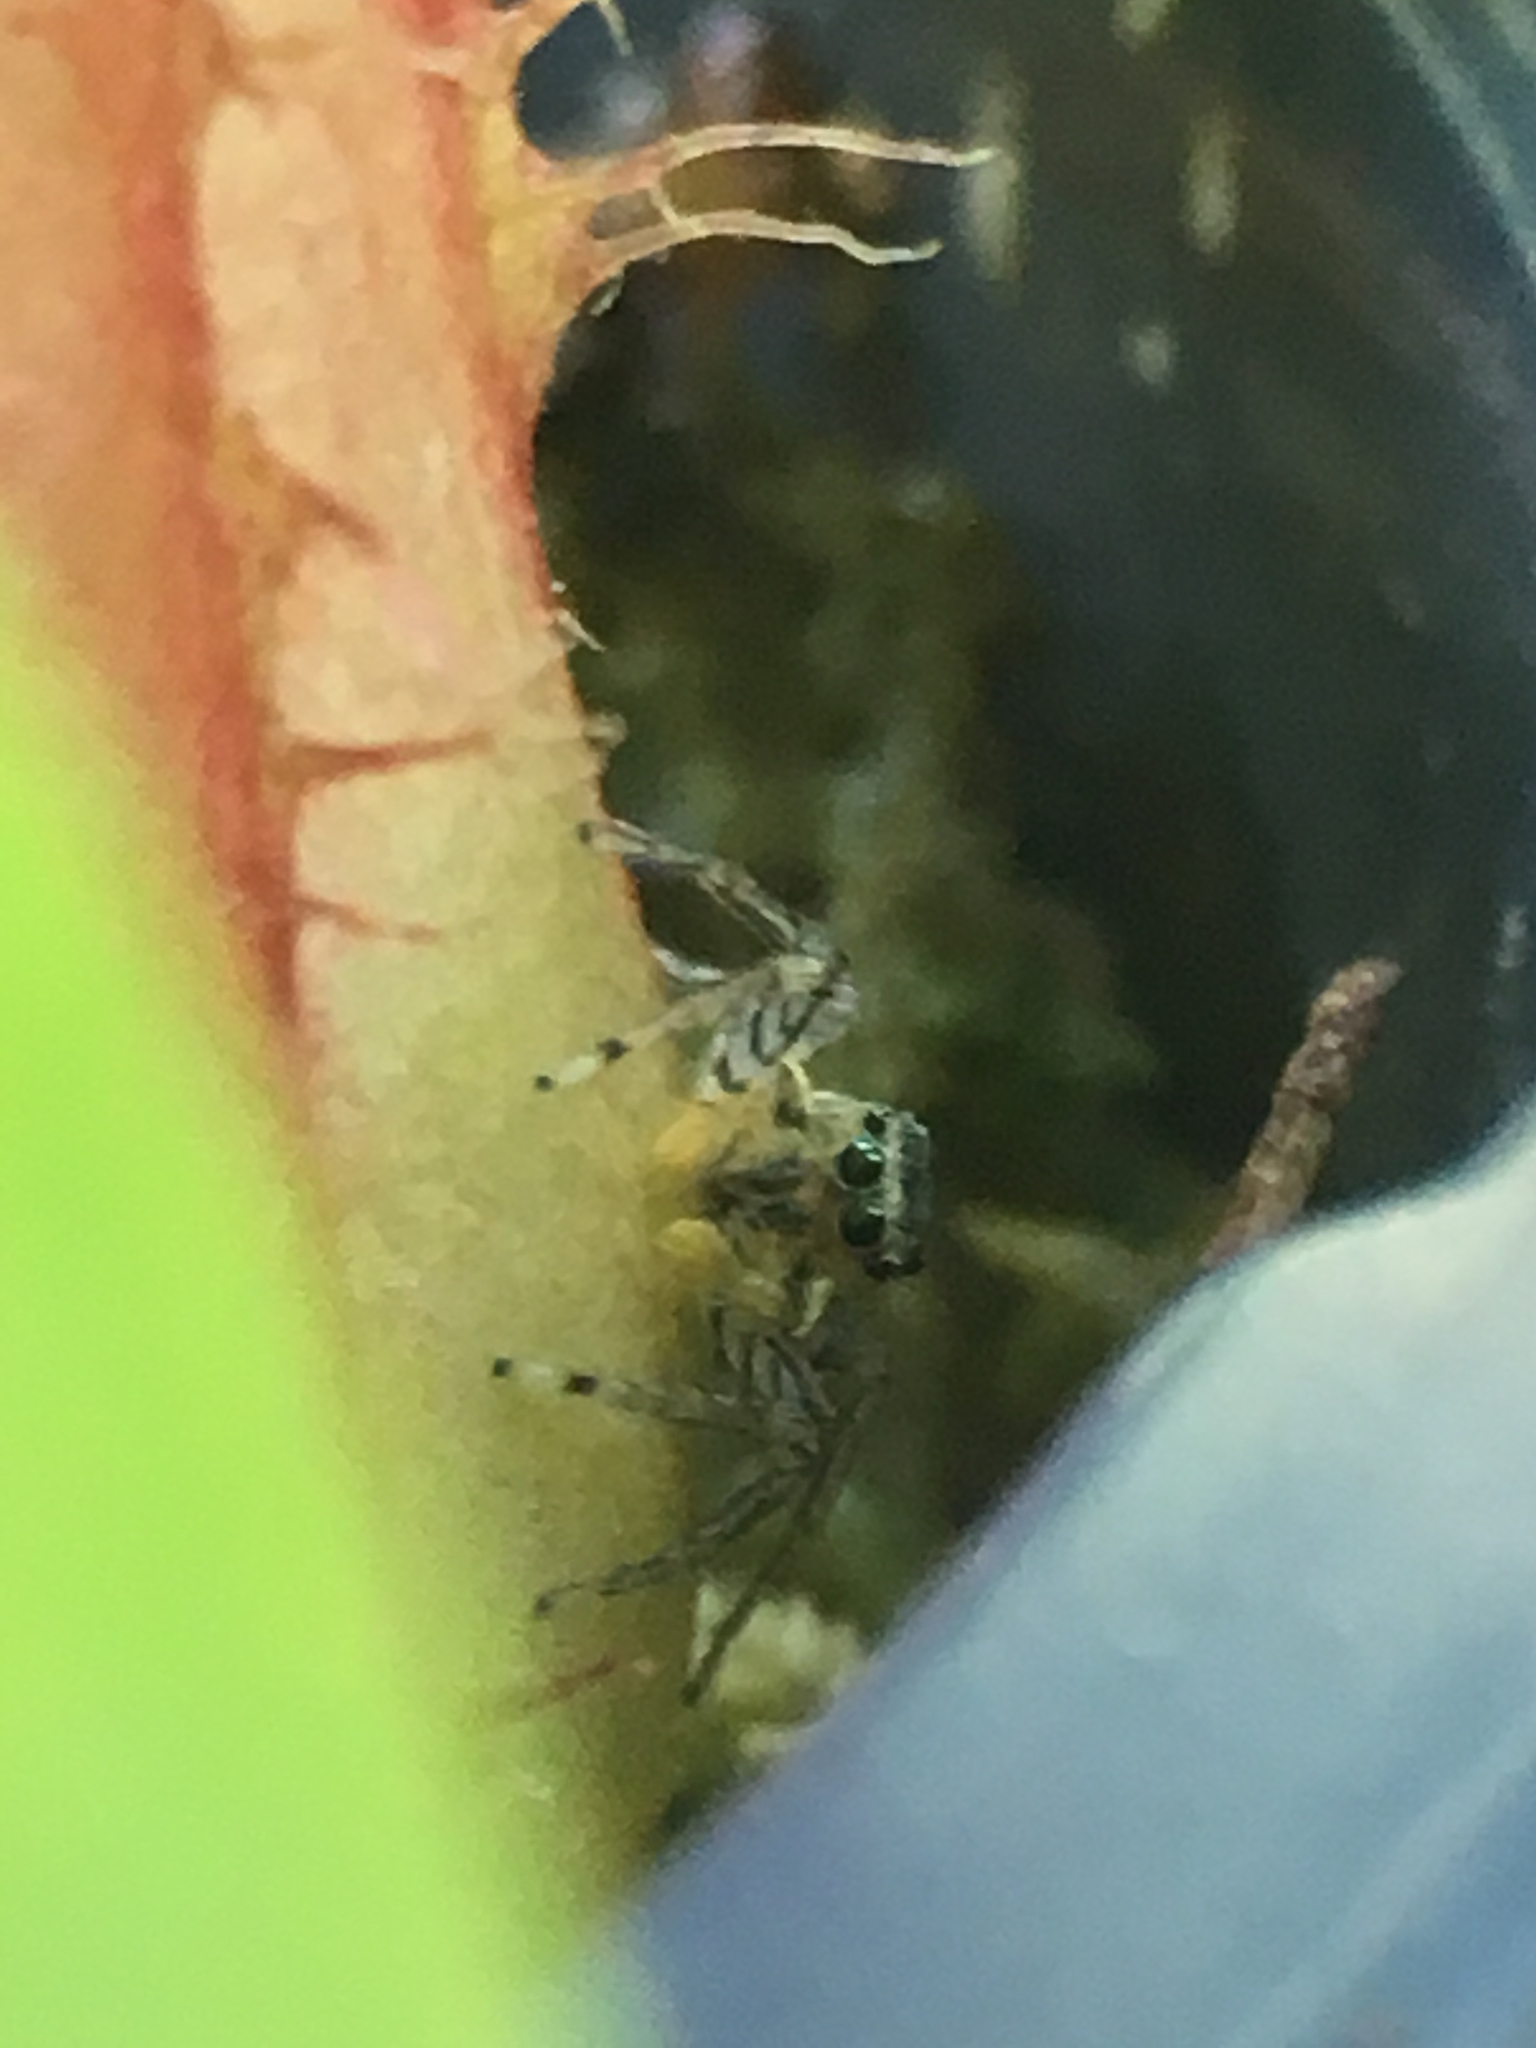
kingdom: Animalia
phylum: Arthropoda
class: Arachnida
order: Araneae
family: Salticidae
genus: Maevia
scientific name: Maevia inclemens
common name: Dimorphic jumper
